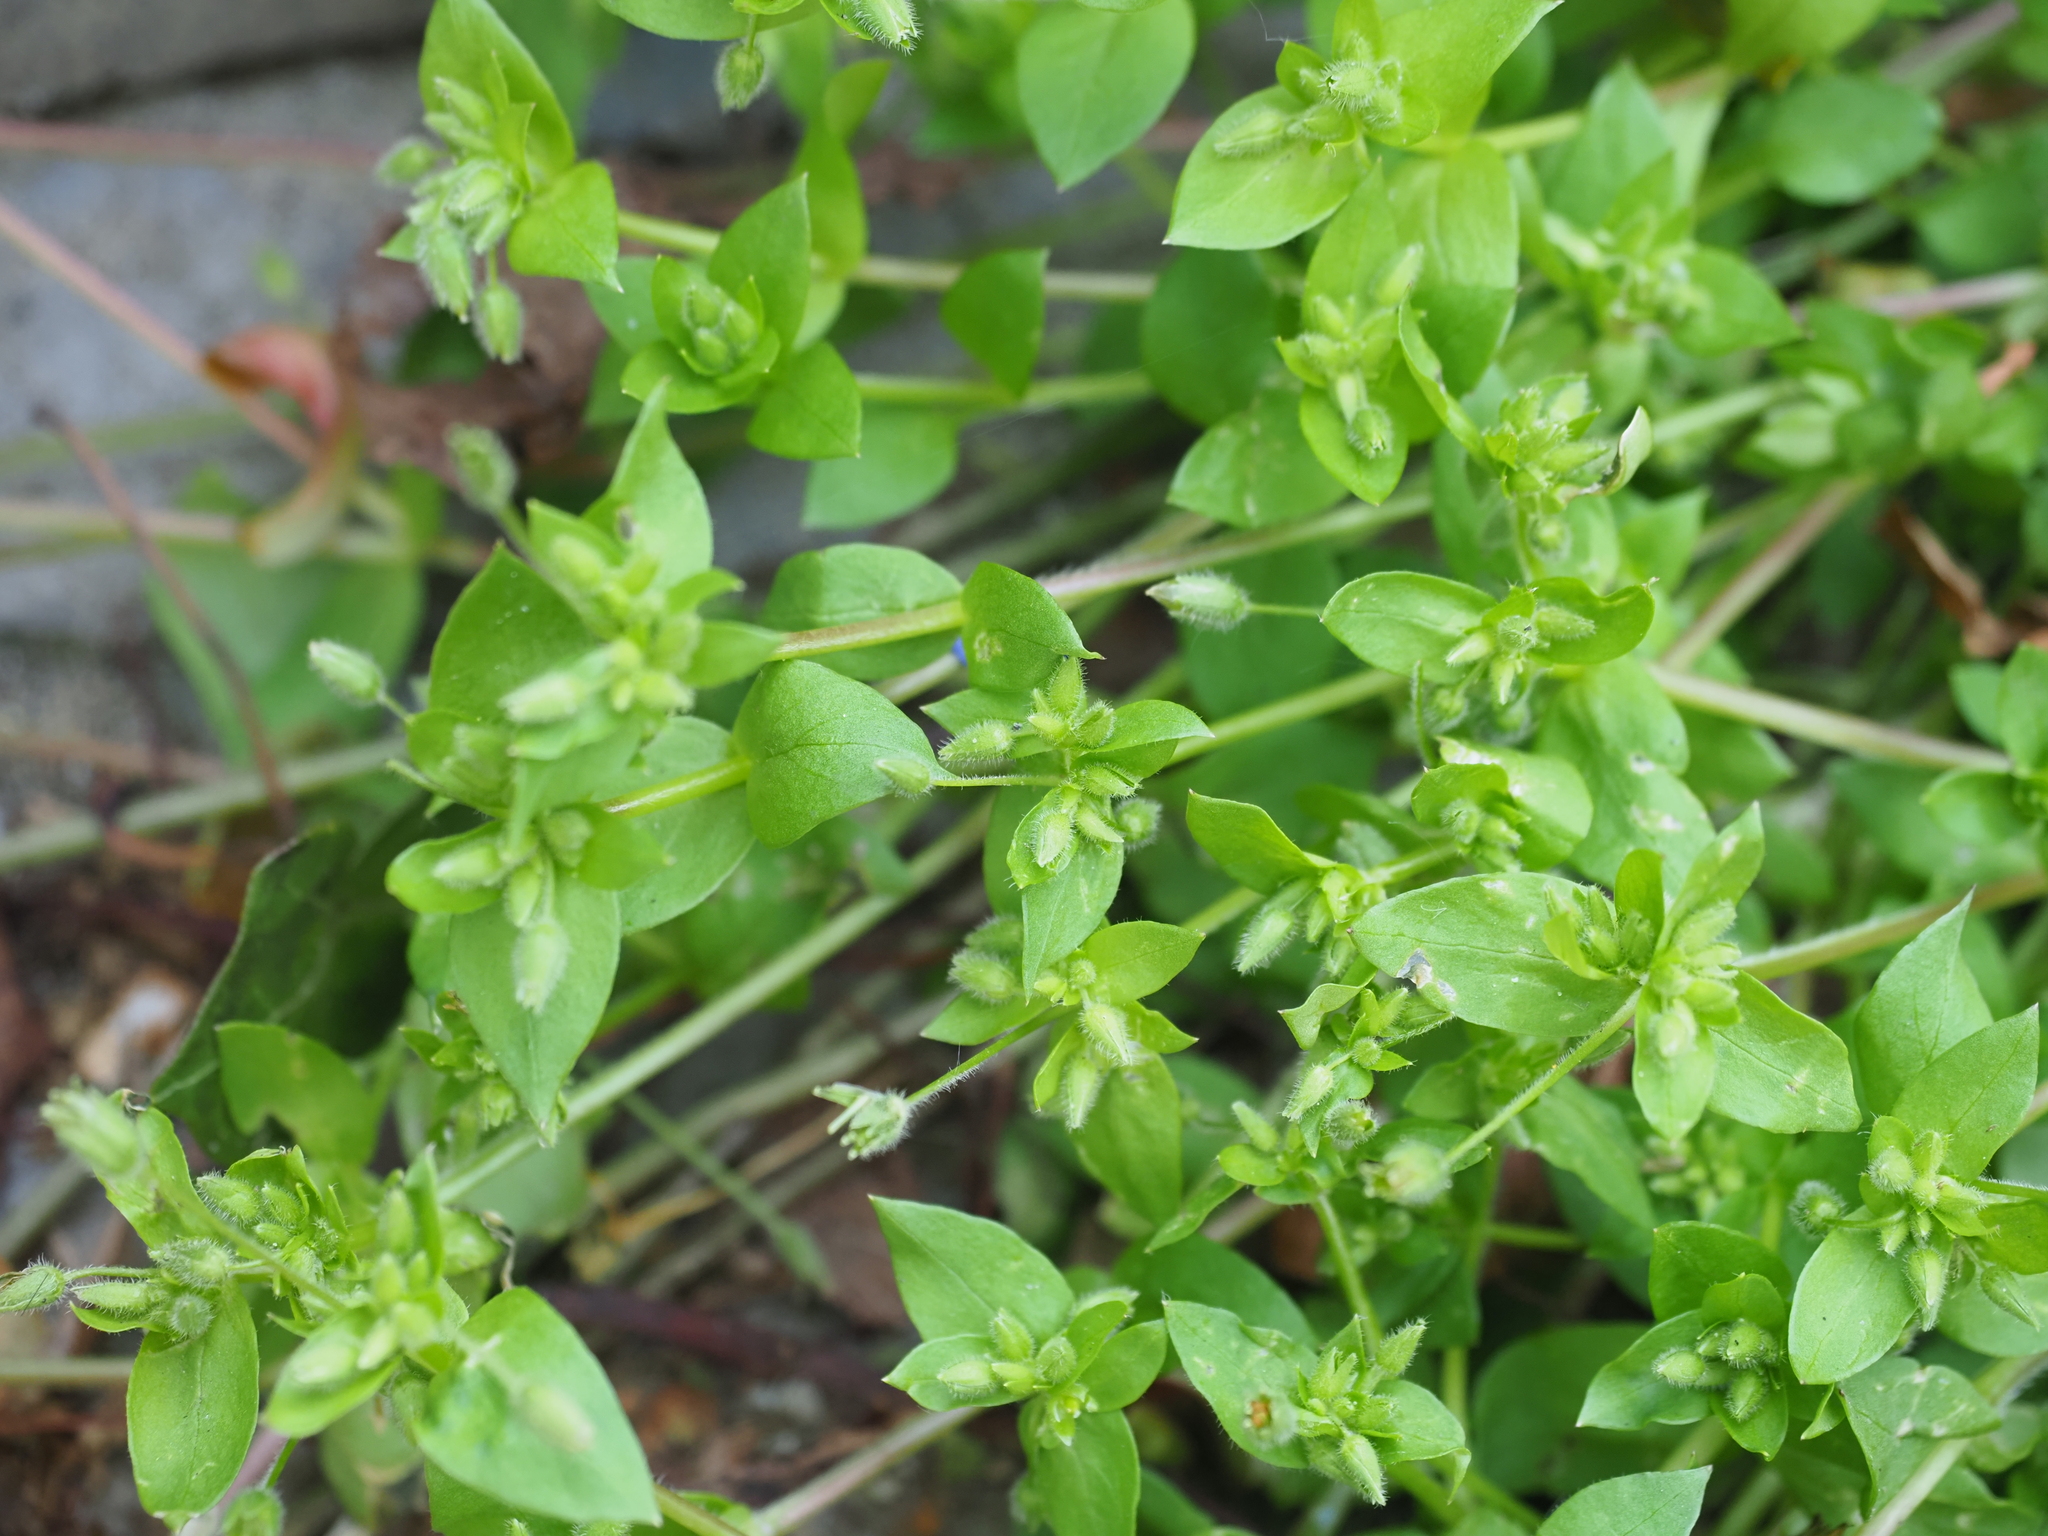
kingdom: Plantae
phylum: Tracheophyta
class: Magnoliopsida
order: Caryophyllales
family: Caryophyllaceae
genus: Stellaria
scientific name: Stellaria media
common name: Common chickweed
